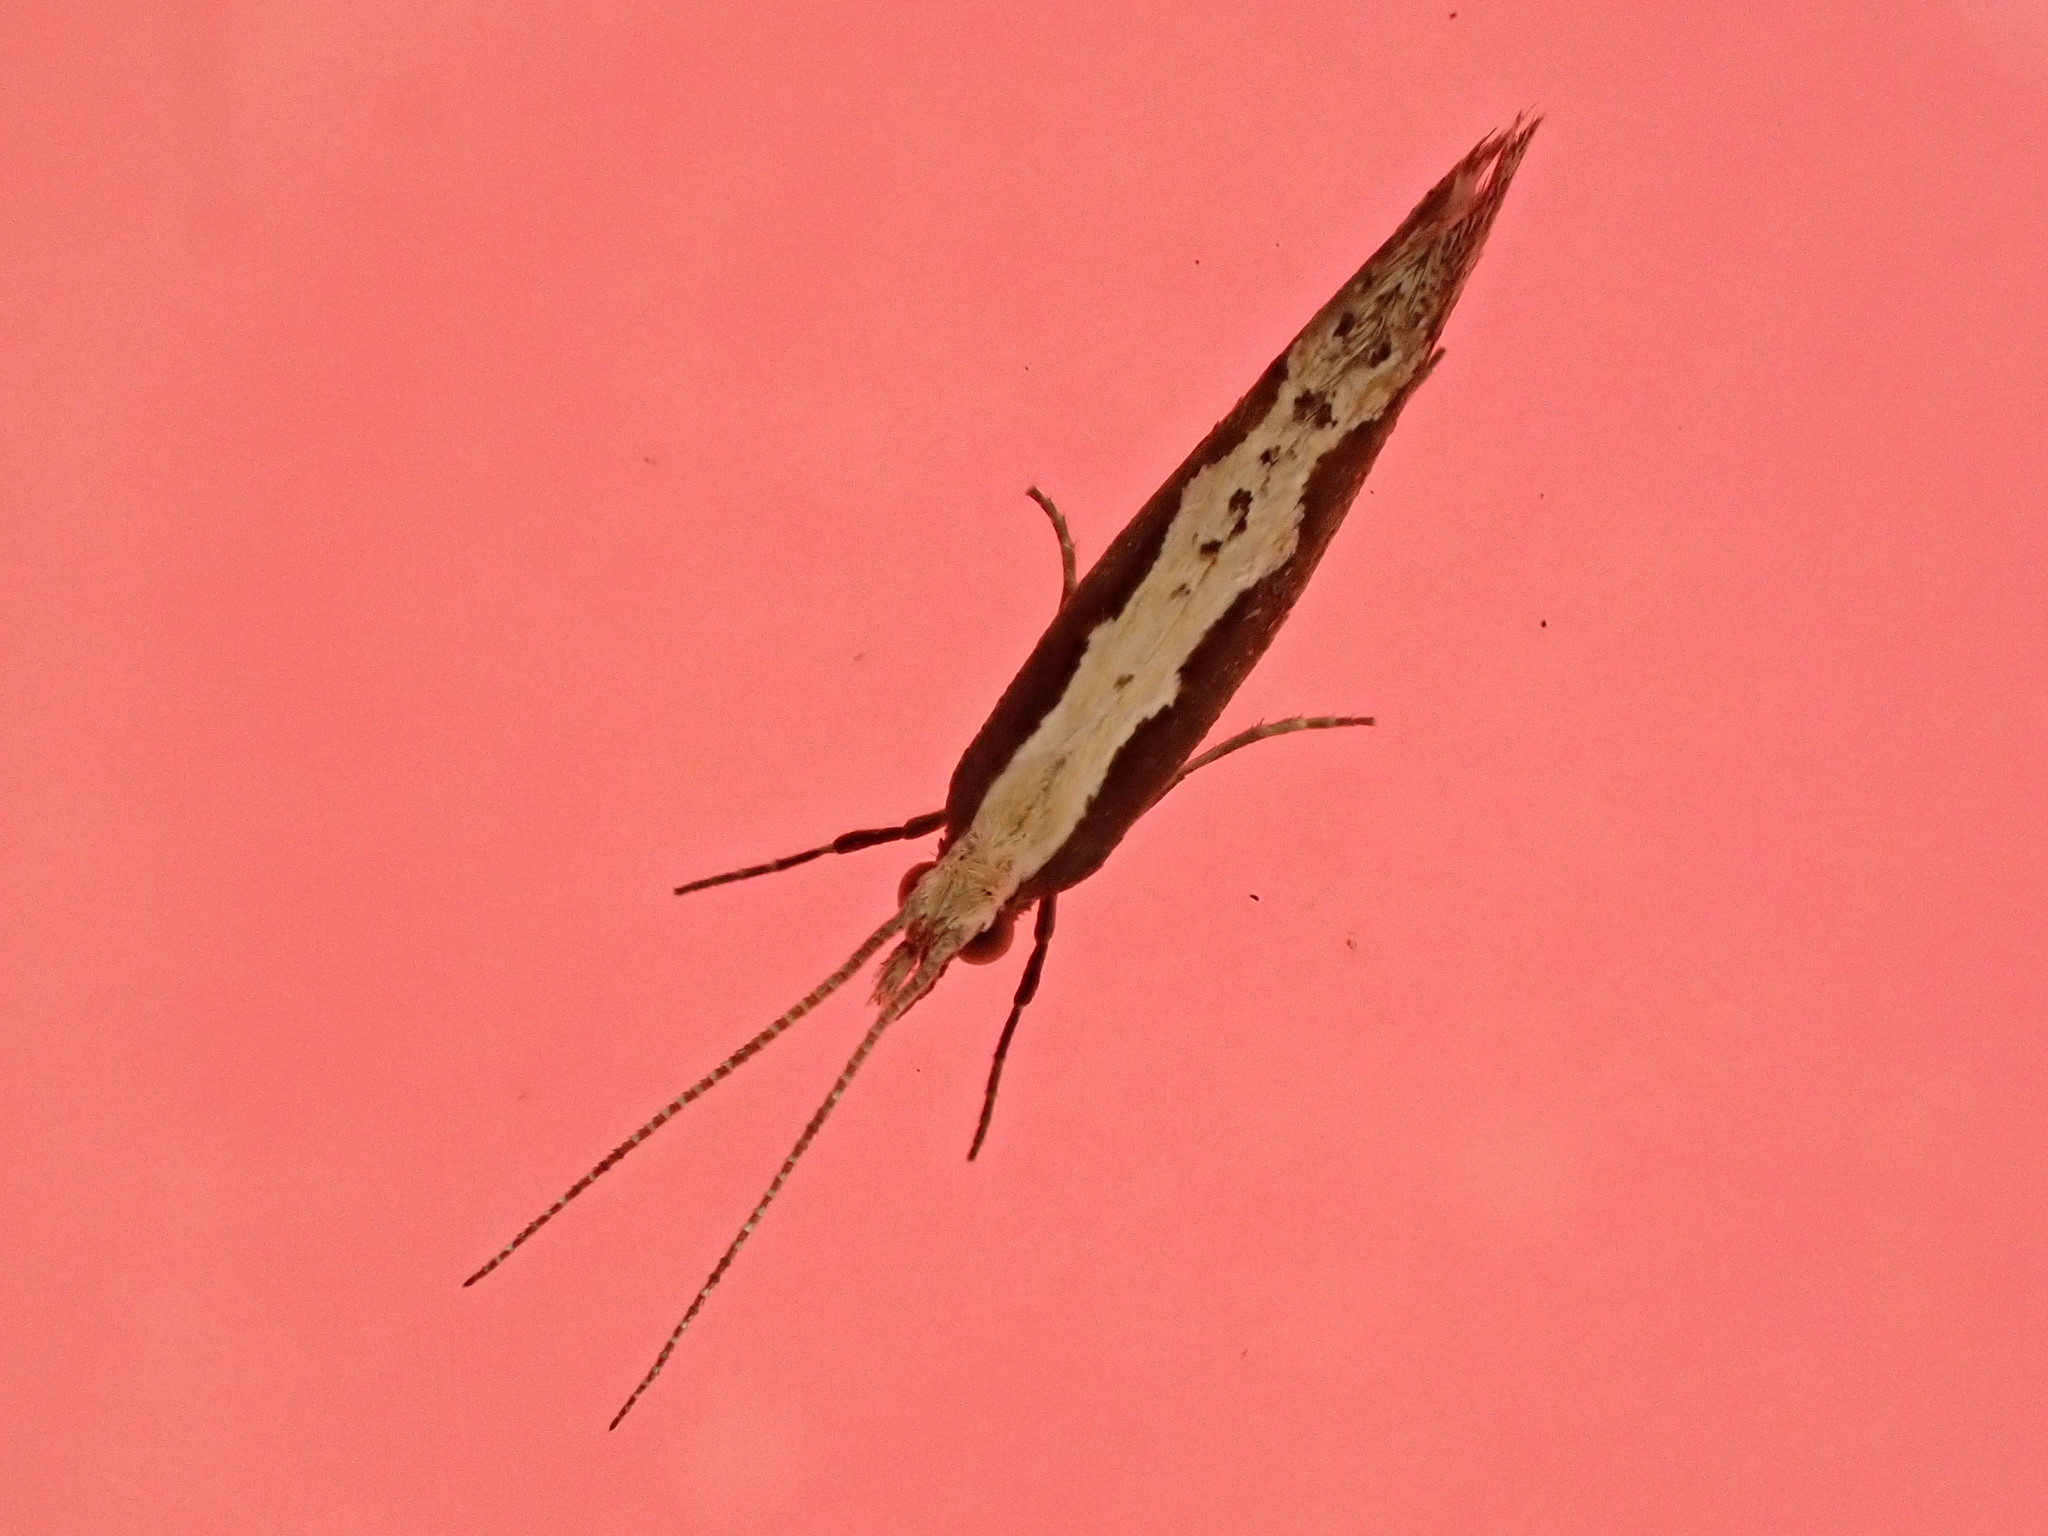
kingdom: Animalia
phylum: Arthropoda
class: Insecta
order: Lepidoptera
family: Plutellidae
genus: Plutella
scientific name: Plutella xylostella
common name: Diamond-back moth
